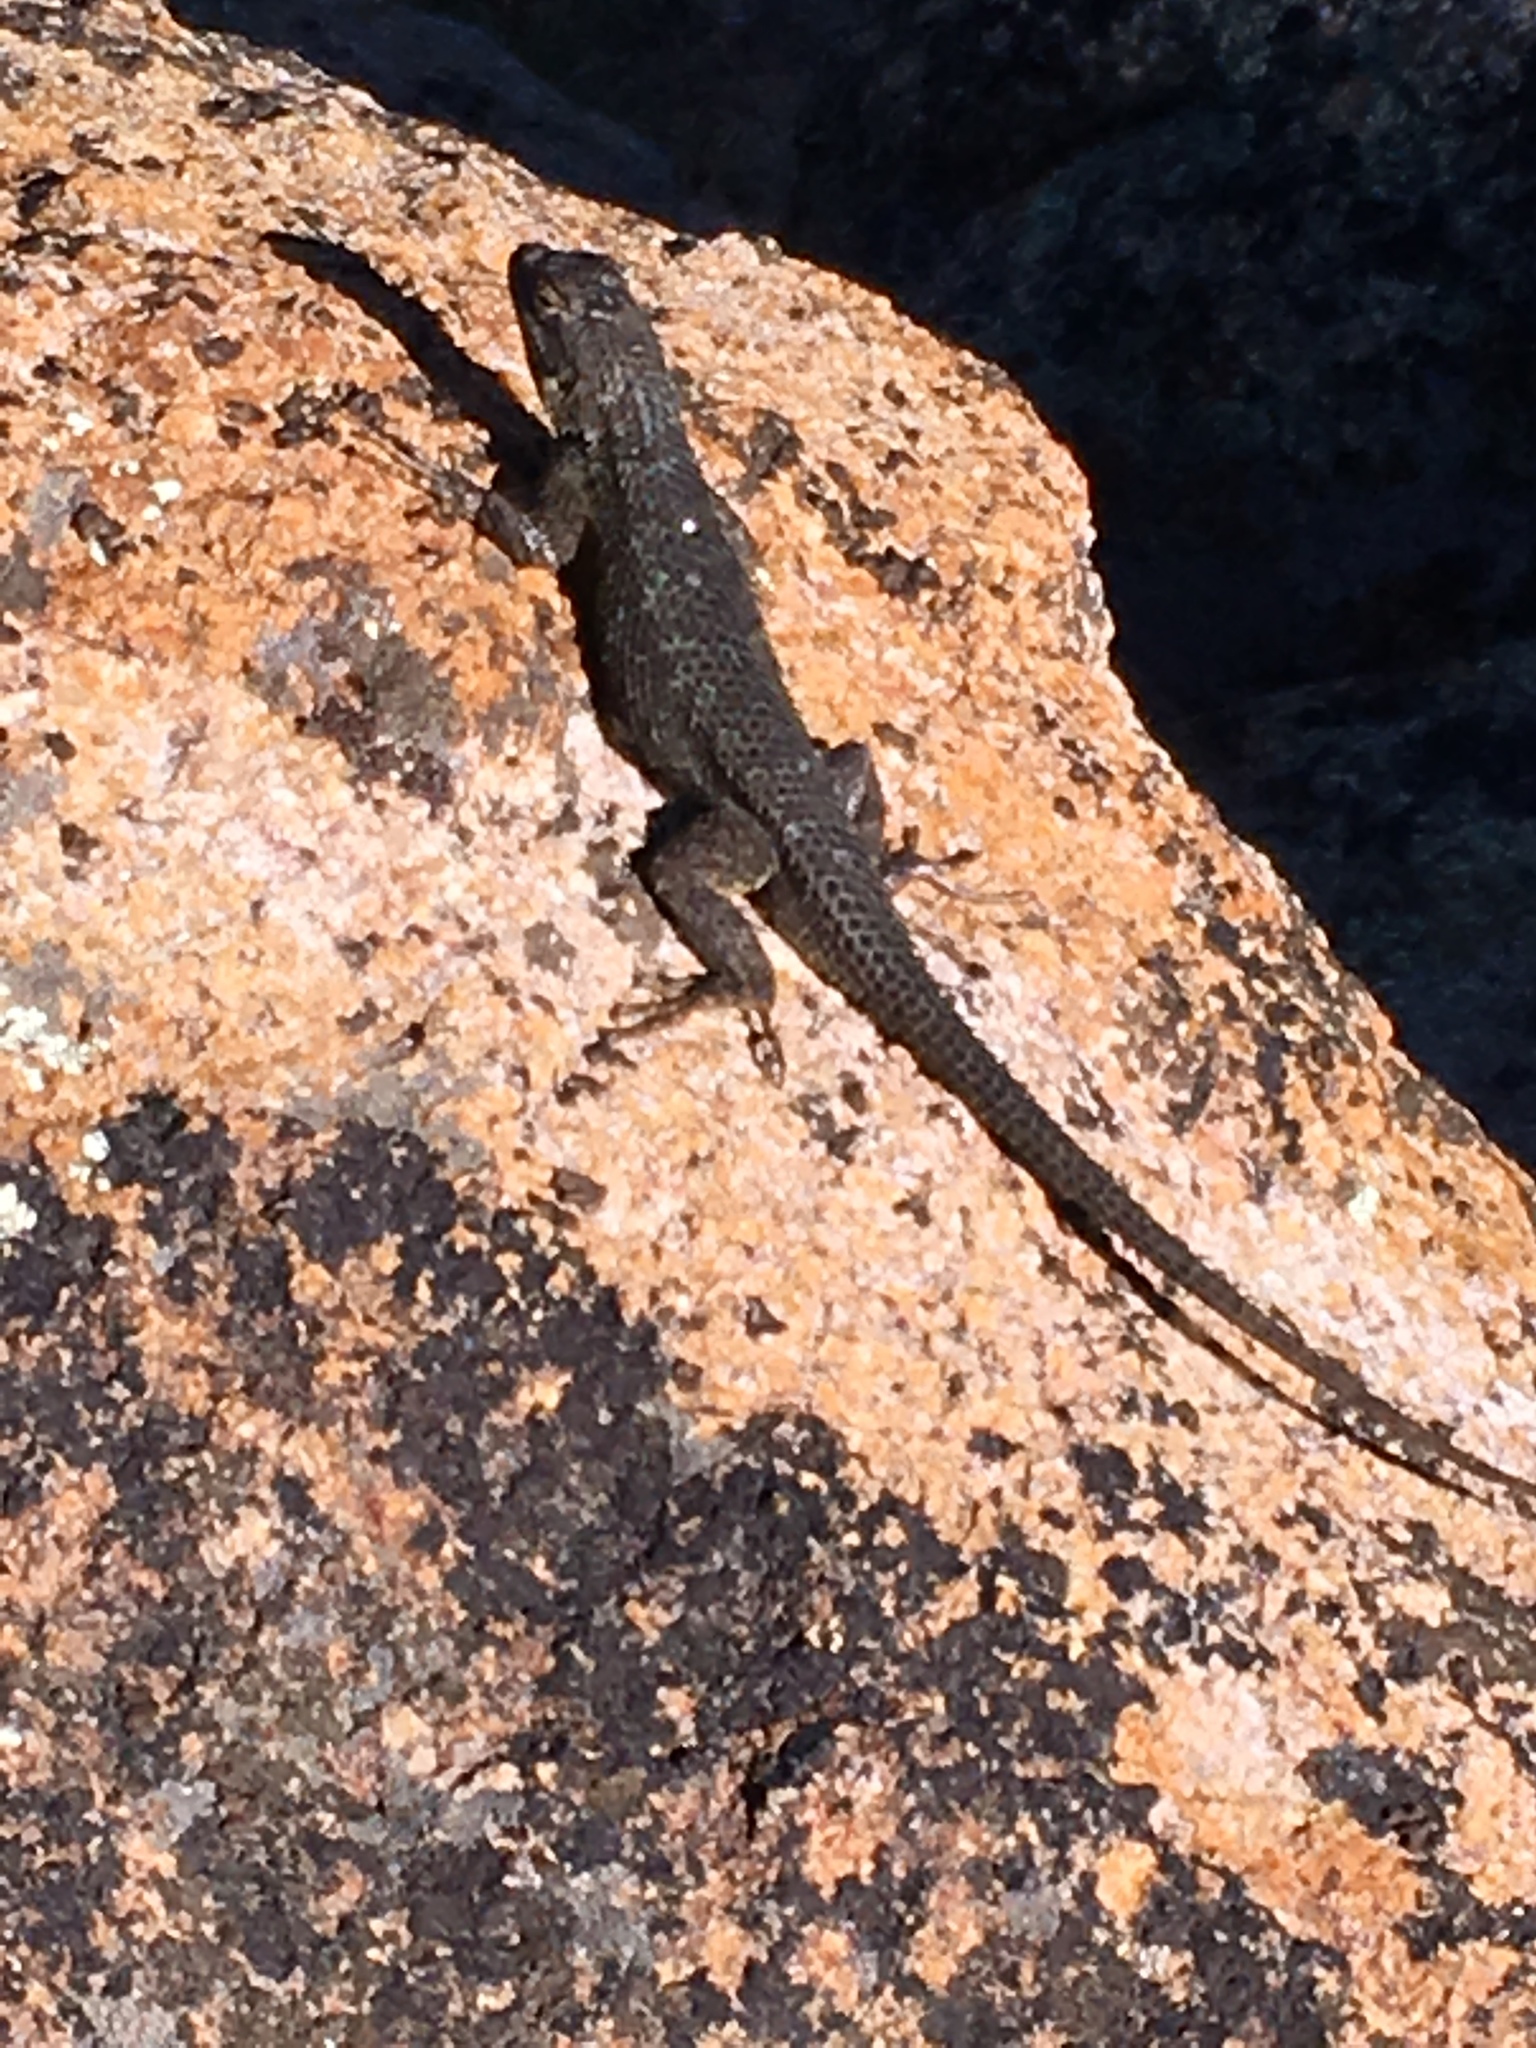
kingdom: Animalia
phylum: Chordata
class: Squamata
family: Phrynosomatidae
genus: Sceloporus
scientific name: Sceloporus occidentalis
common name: Western fence lizard
